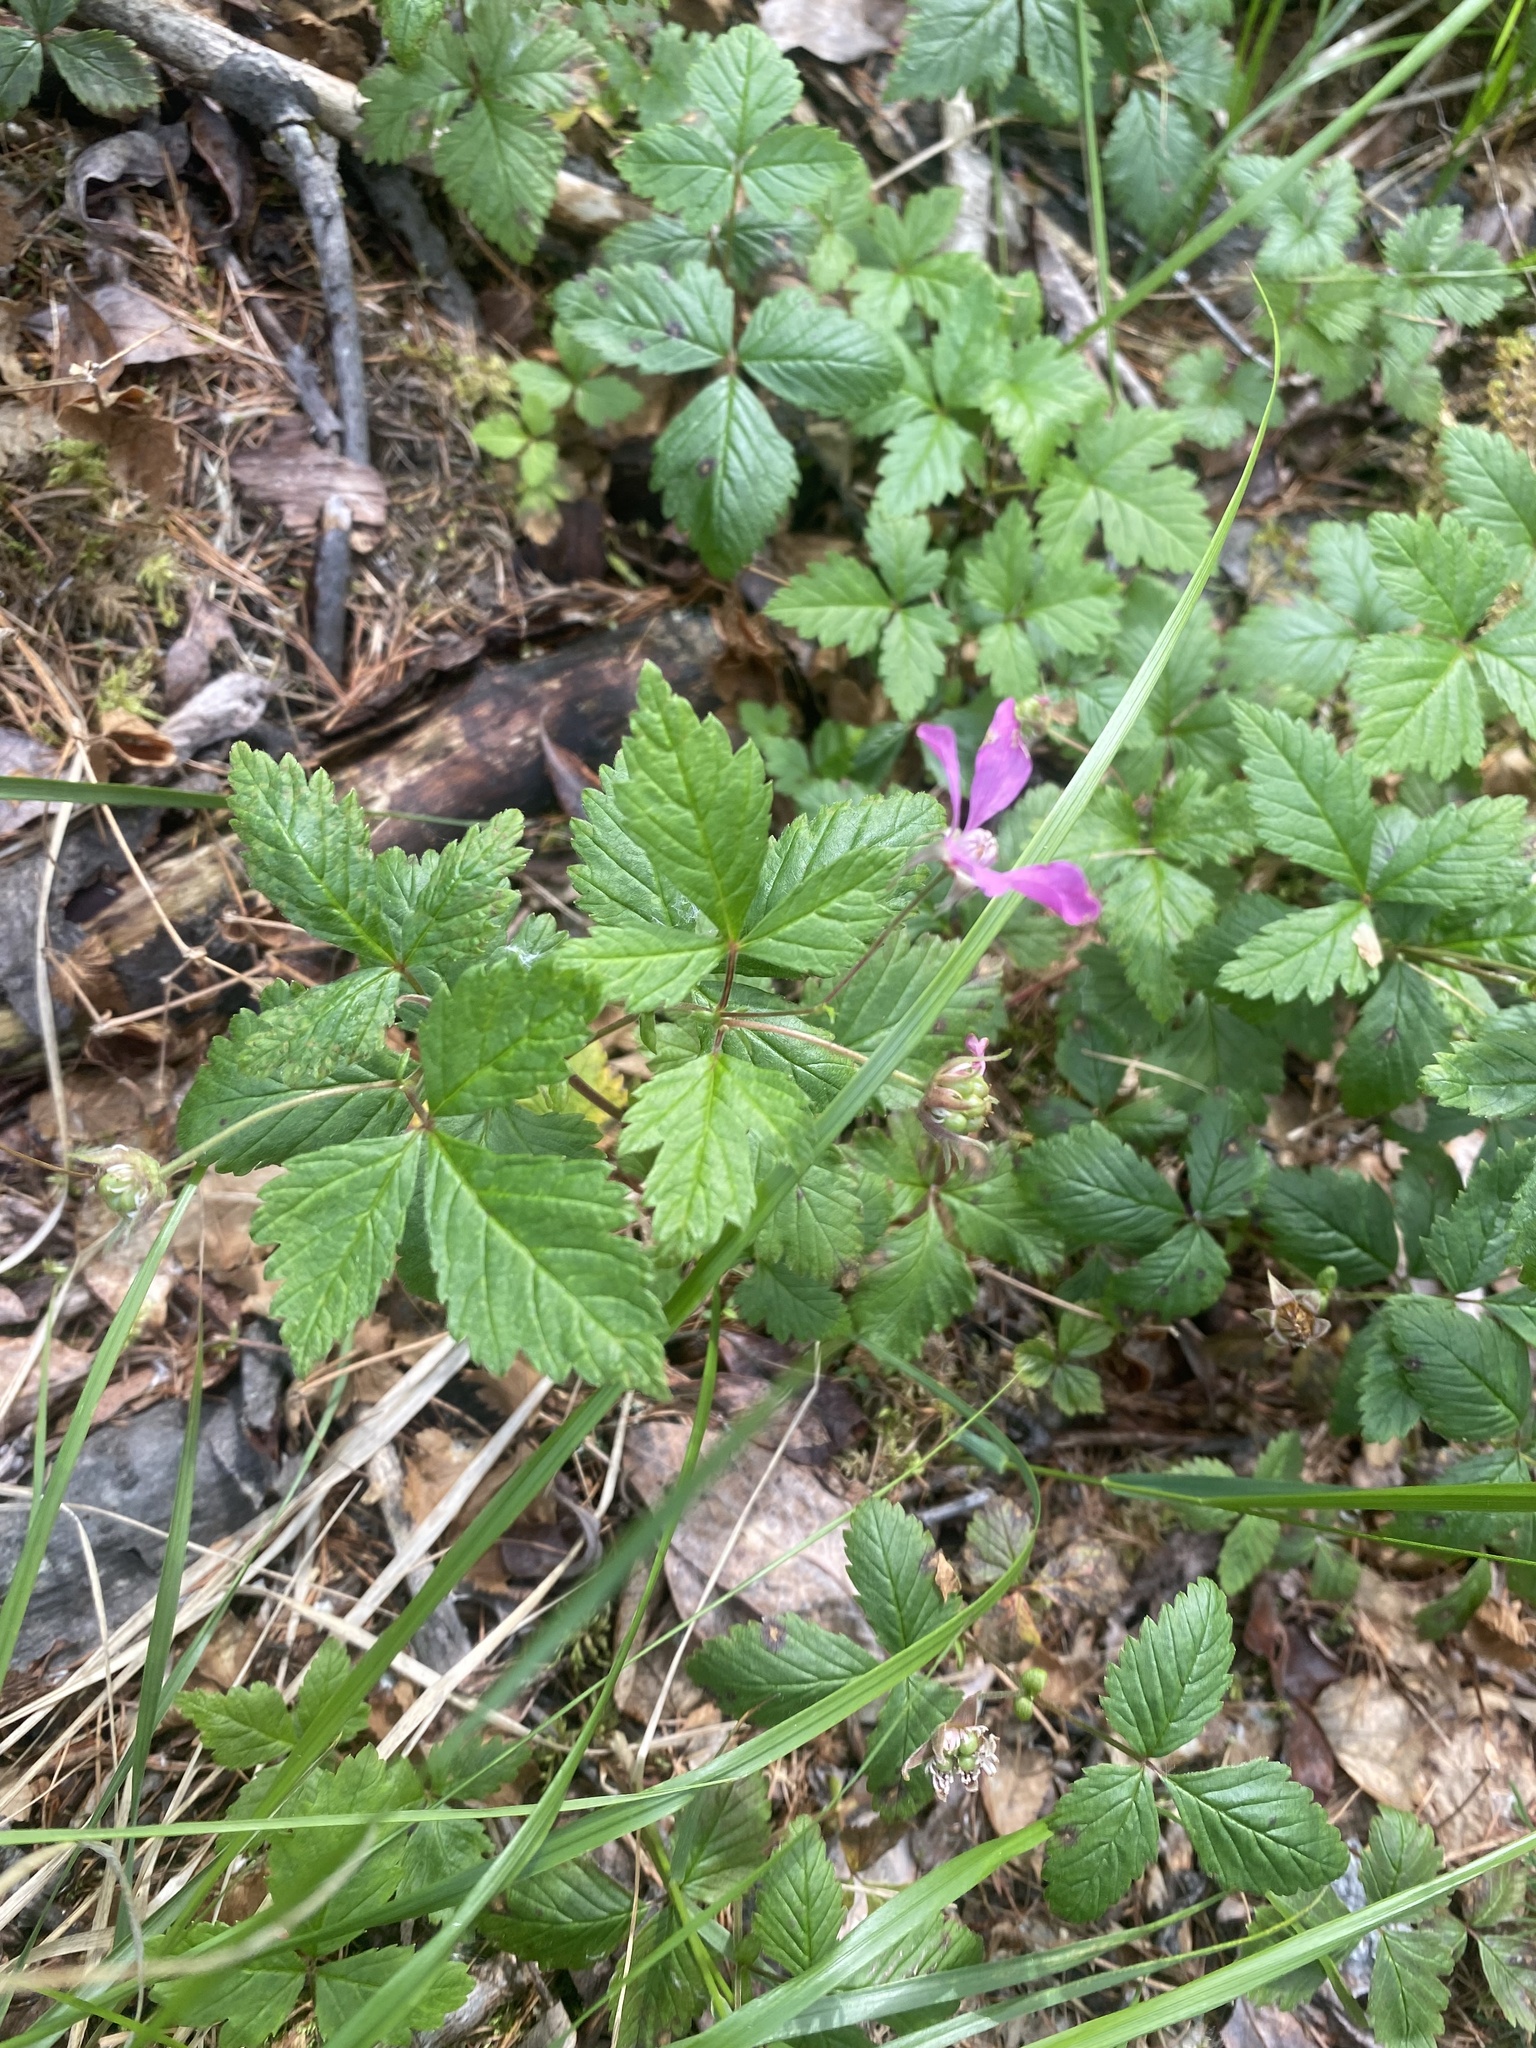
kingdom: Plantae
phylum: Tracheophyta
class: Magnoliopsida
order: Rosales
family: Rosaceae
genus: Rubus
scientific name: Rubus arcticus
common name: Arctic bramble
